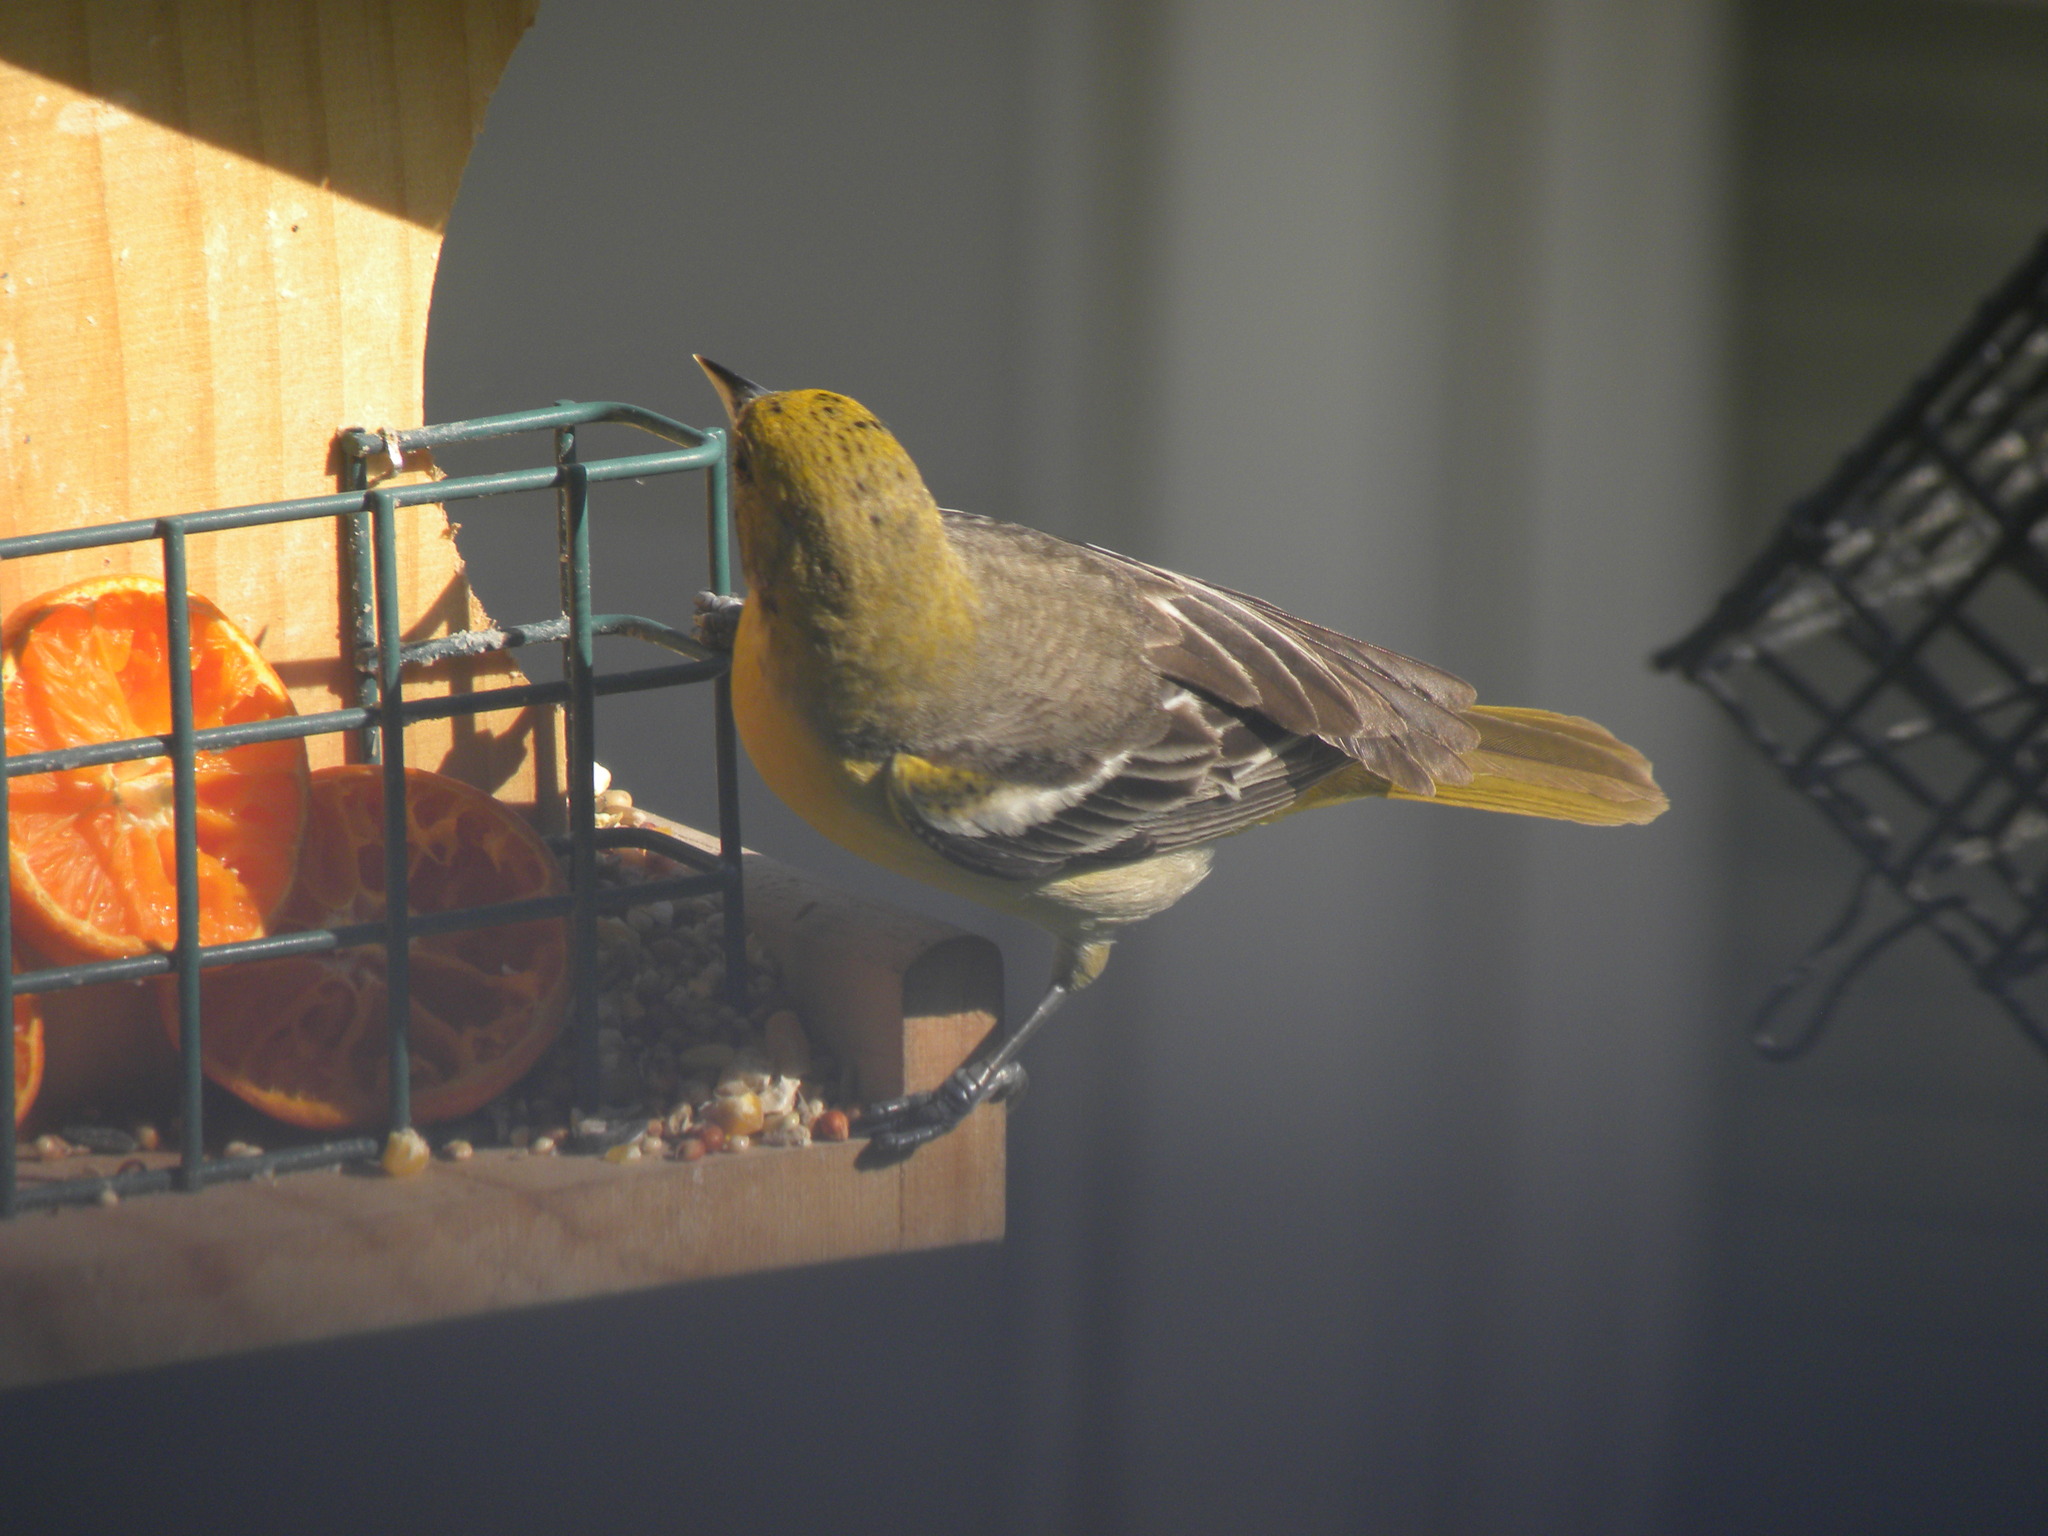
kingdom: Animalia
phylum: Chordata
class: Aves
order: Passeriformes
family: Icteridae
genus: Icterus
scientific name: Icterus galbula
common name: Baltimore oriole
